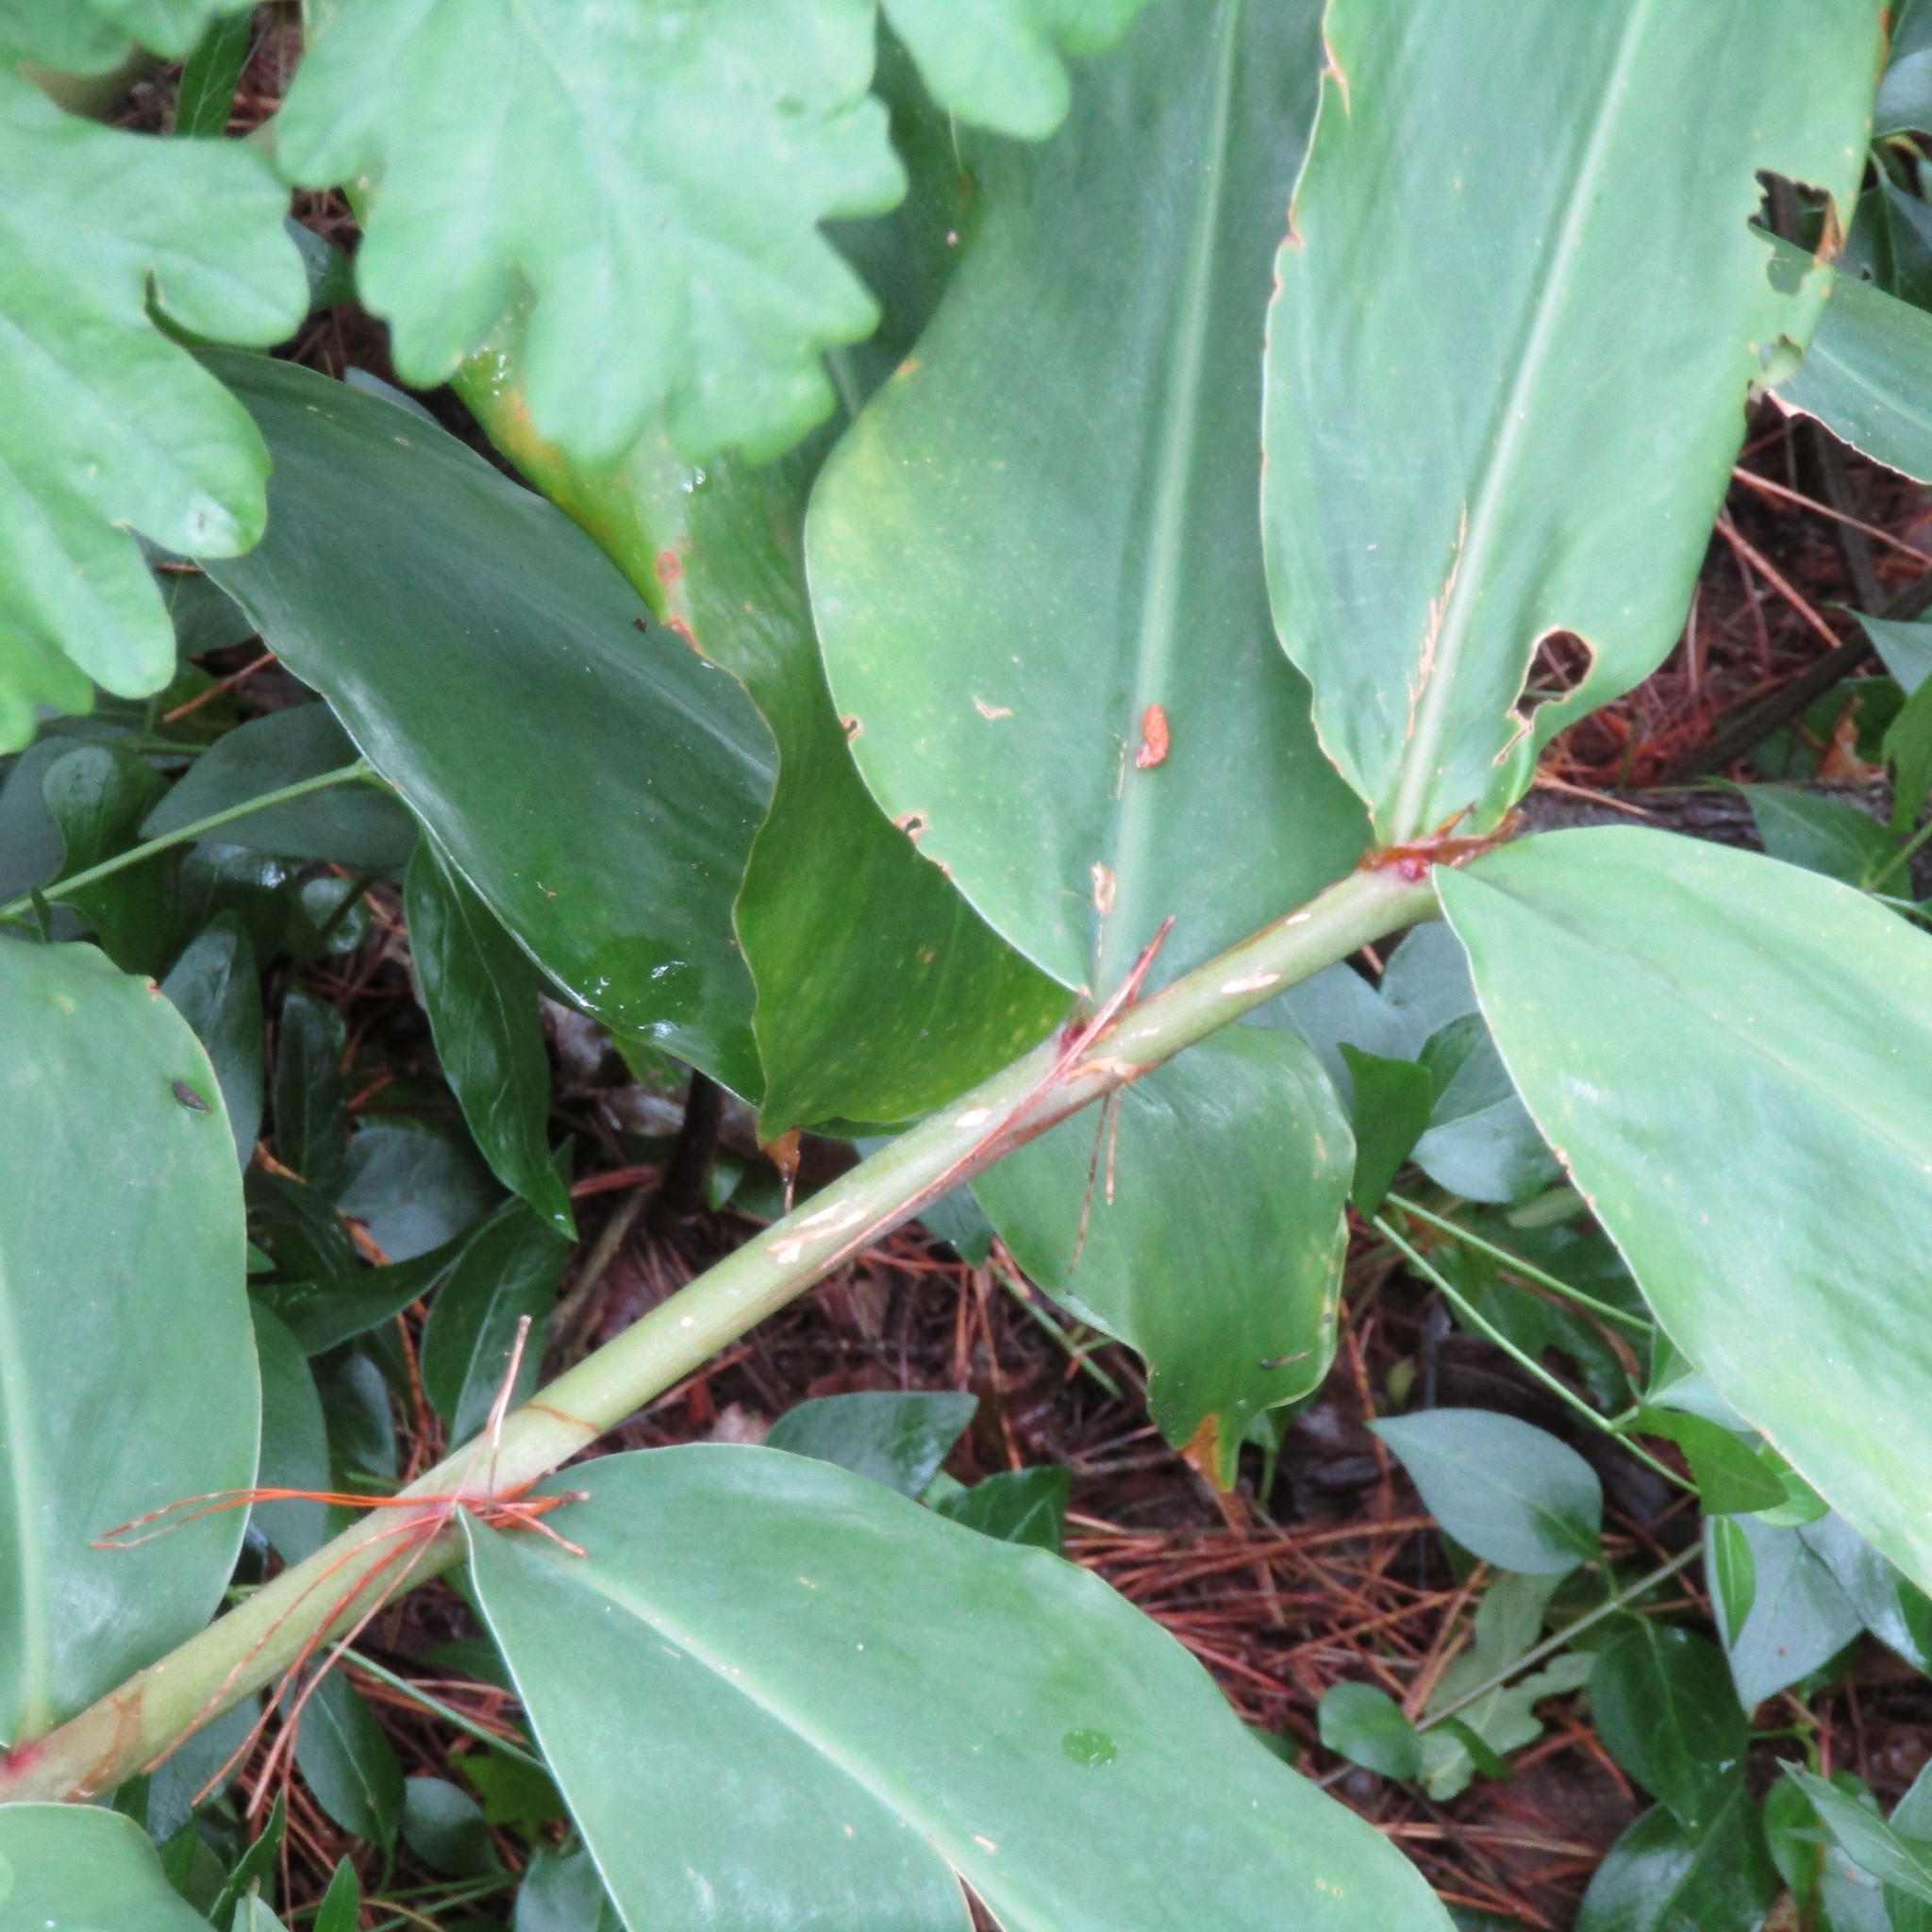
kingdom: Plantae
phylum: Tracheophyta
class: Liliopsida
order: Zingiberales
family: Zingiberaceae
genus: Hedychium
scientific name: Hedychium gardnerianum
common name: Himalayan ginger
